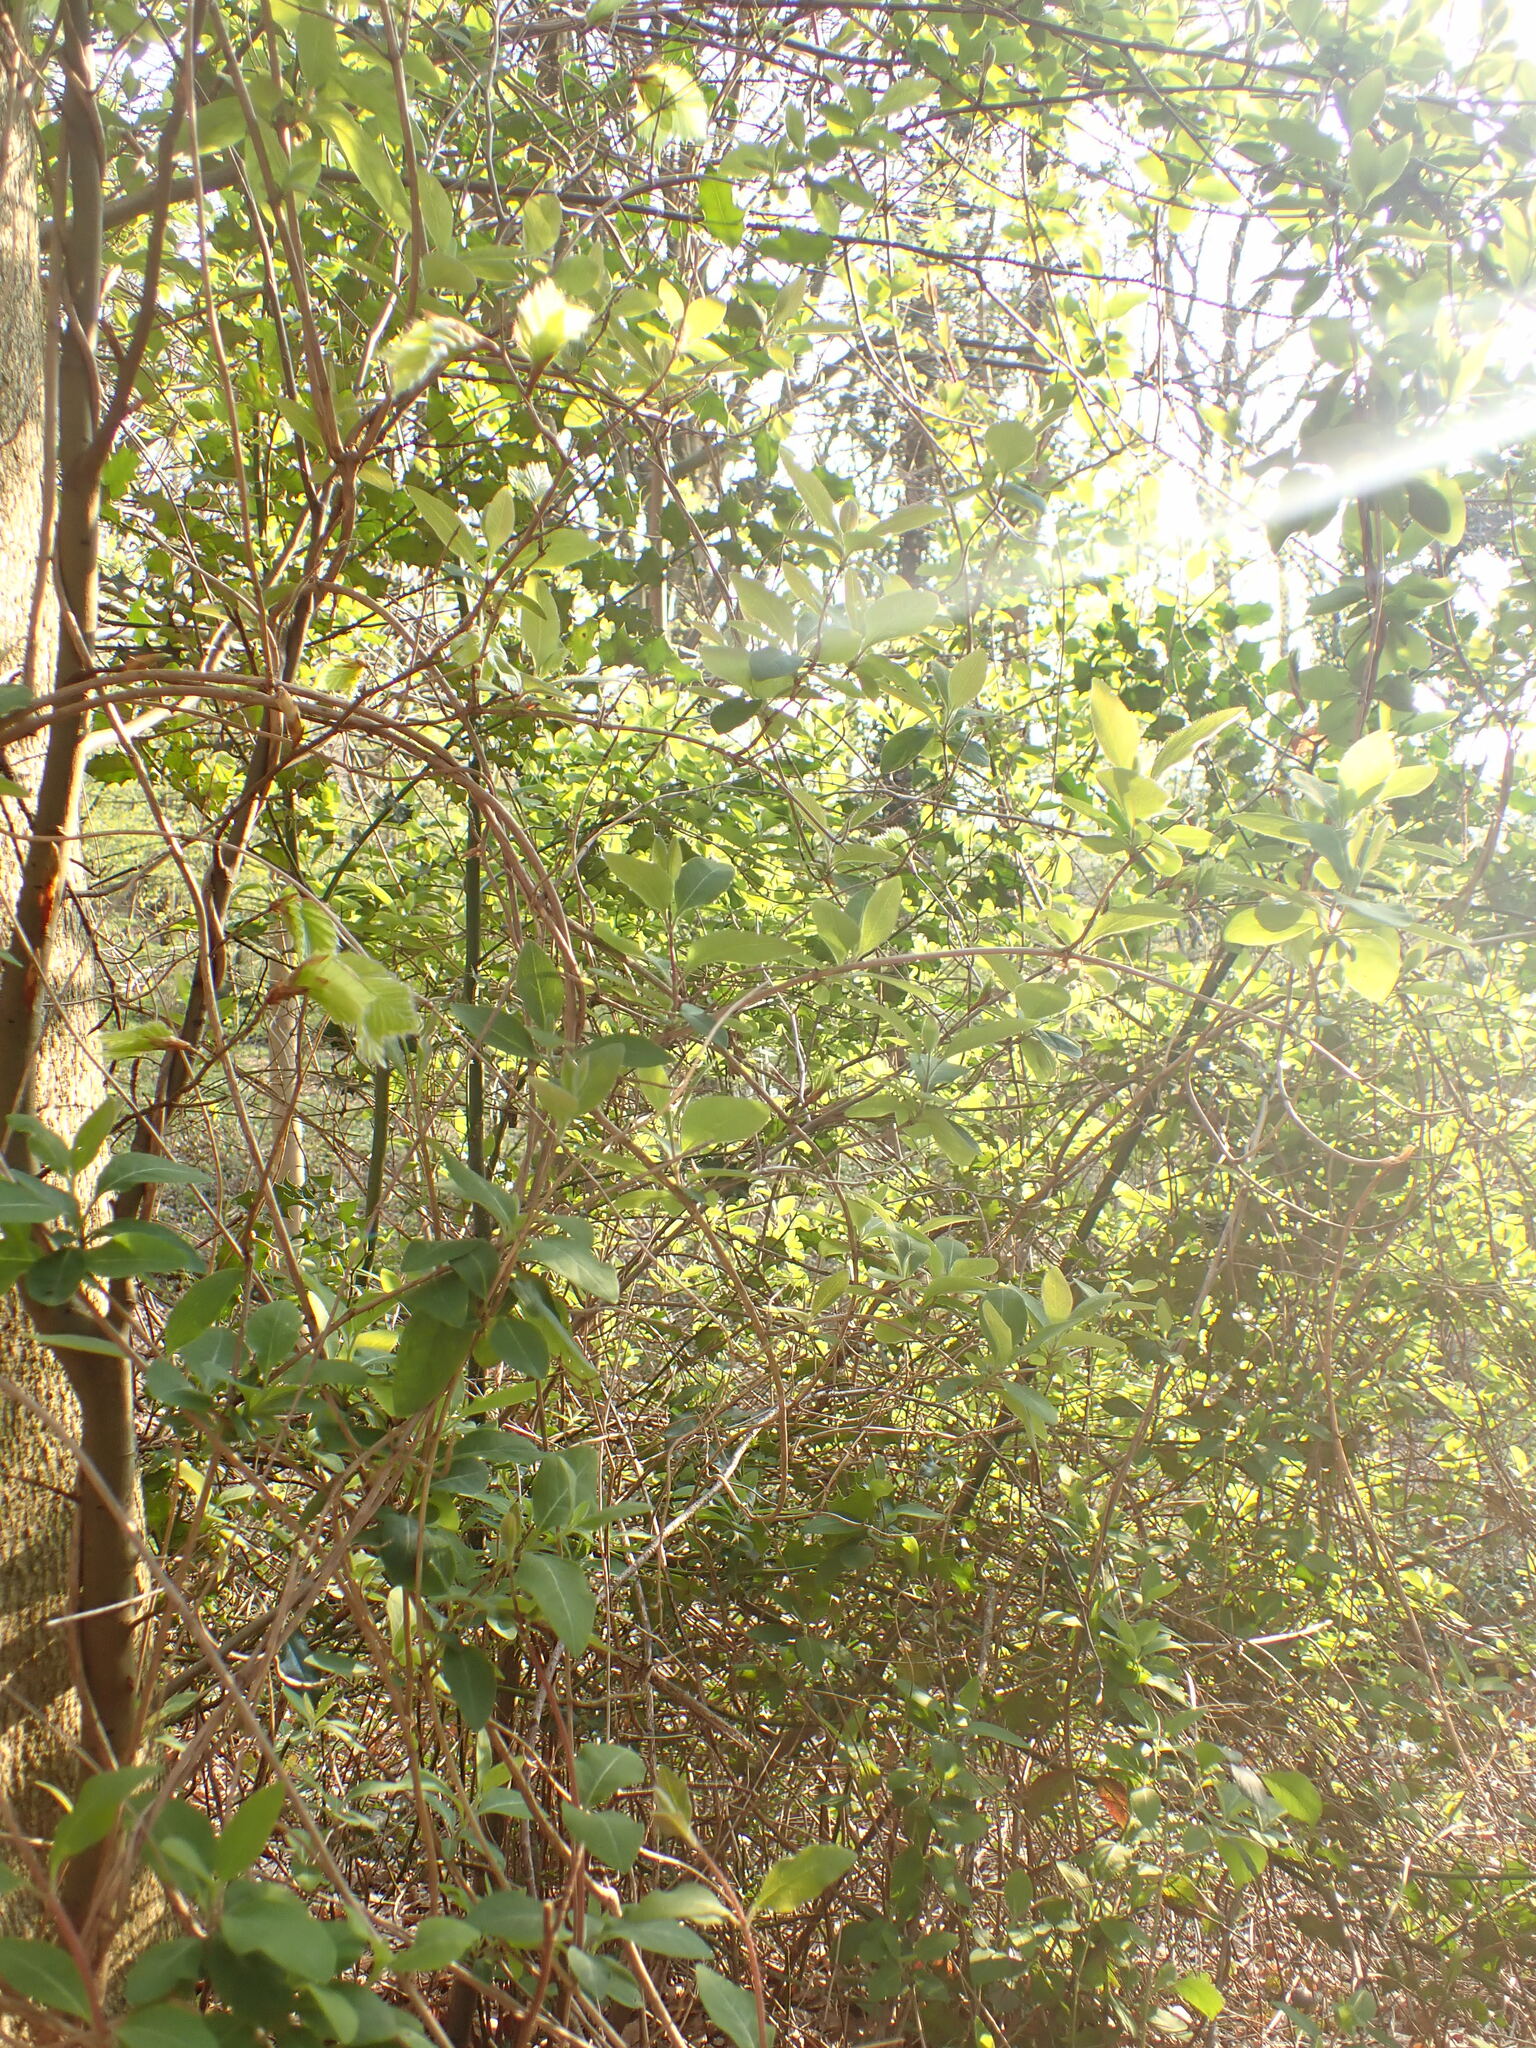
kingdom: Plantae
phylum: Tracheophyta
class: Magnoliopsida
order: Dipsacales
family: Caprifoliaceae
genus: Lonicera
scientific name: Lonicera periclymenum
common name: European honeysuckle
